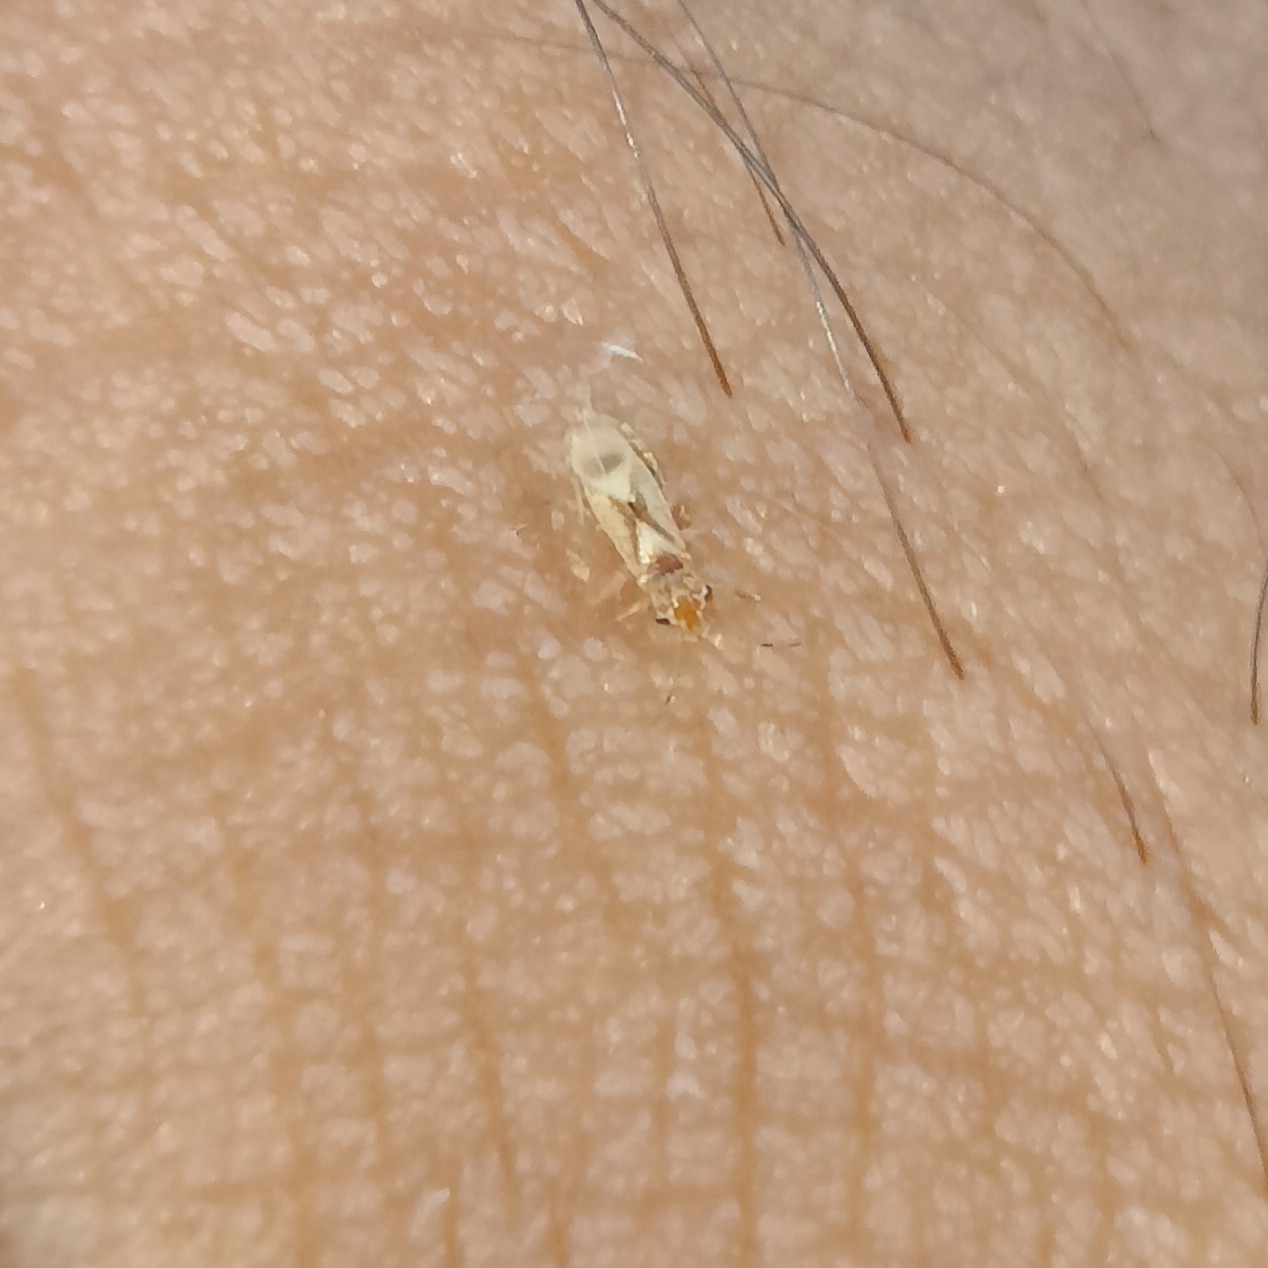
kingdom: Animalia
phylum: Arthropoda
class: Insecta
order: Hemiptera
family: Thaumastocoridae
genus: Thaumastocoris
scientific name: Thaumastocoris peregrinus
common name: Bronze bug
